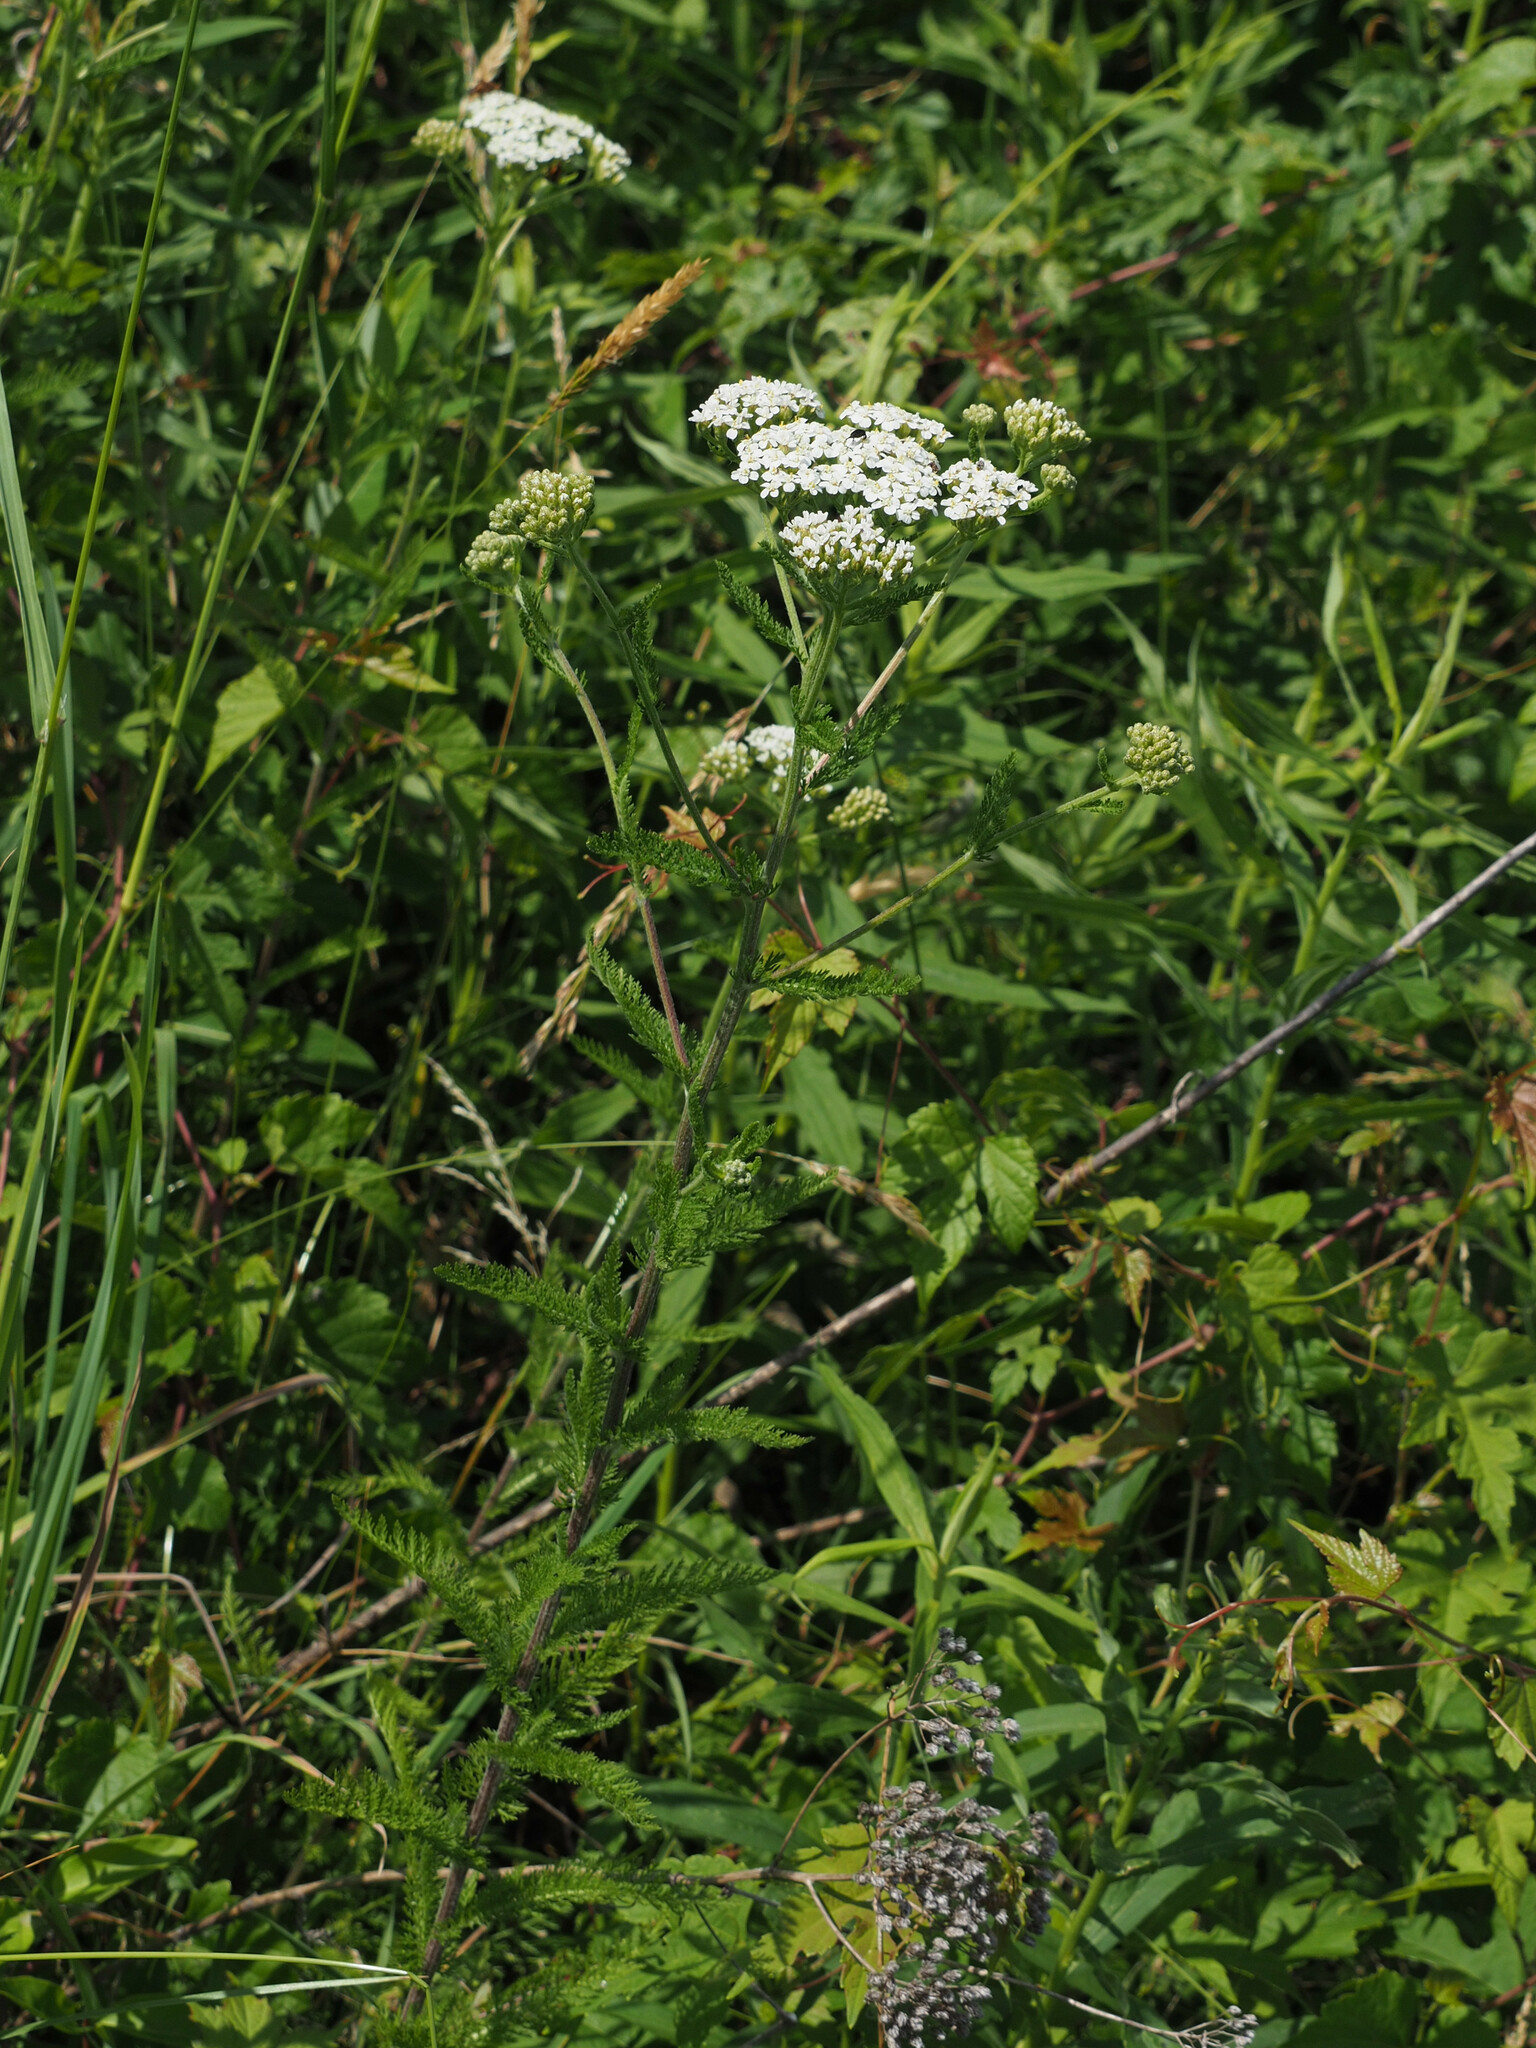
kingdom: Plantae
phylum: Tracheophyta
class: Magnoliopsida
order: Asterales
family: Asteraceae
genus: Achillea
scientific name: Achillea millefolium
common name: Yarrow
